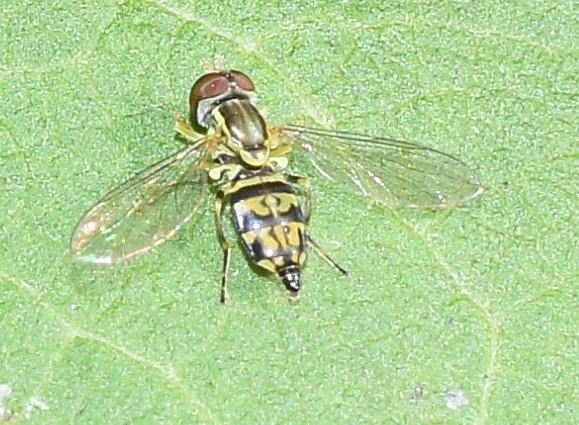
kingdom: Animalia
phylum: Arthropoda
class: Insecta
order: Diptera
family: Syrphidae
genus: Toxomerus
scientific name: Toxomerus geminatus
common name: Eastern calligrapher
